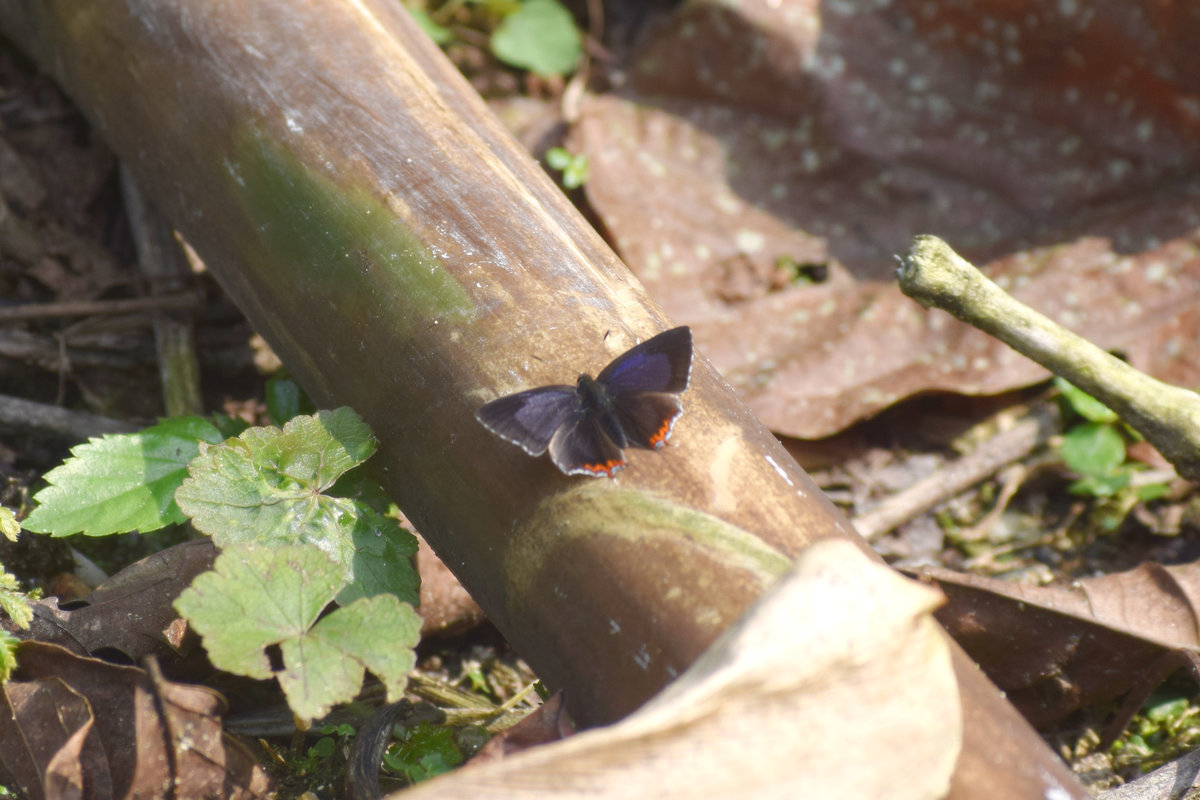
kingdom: Animalia
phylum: Arthropoda
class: Insecta
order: Lepidoptera
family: Lycaenidae
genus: Heliophorus
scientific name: Heliophorus indicus
